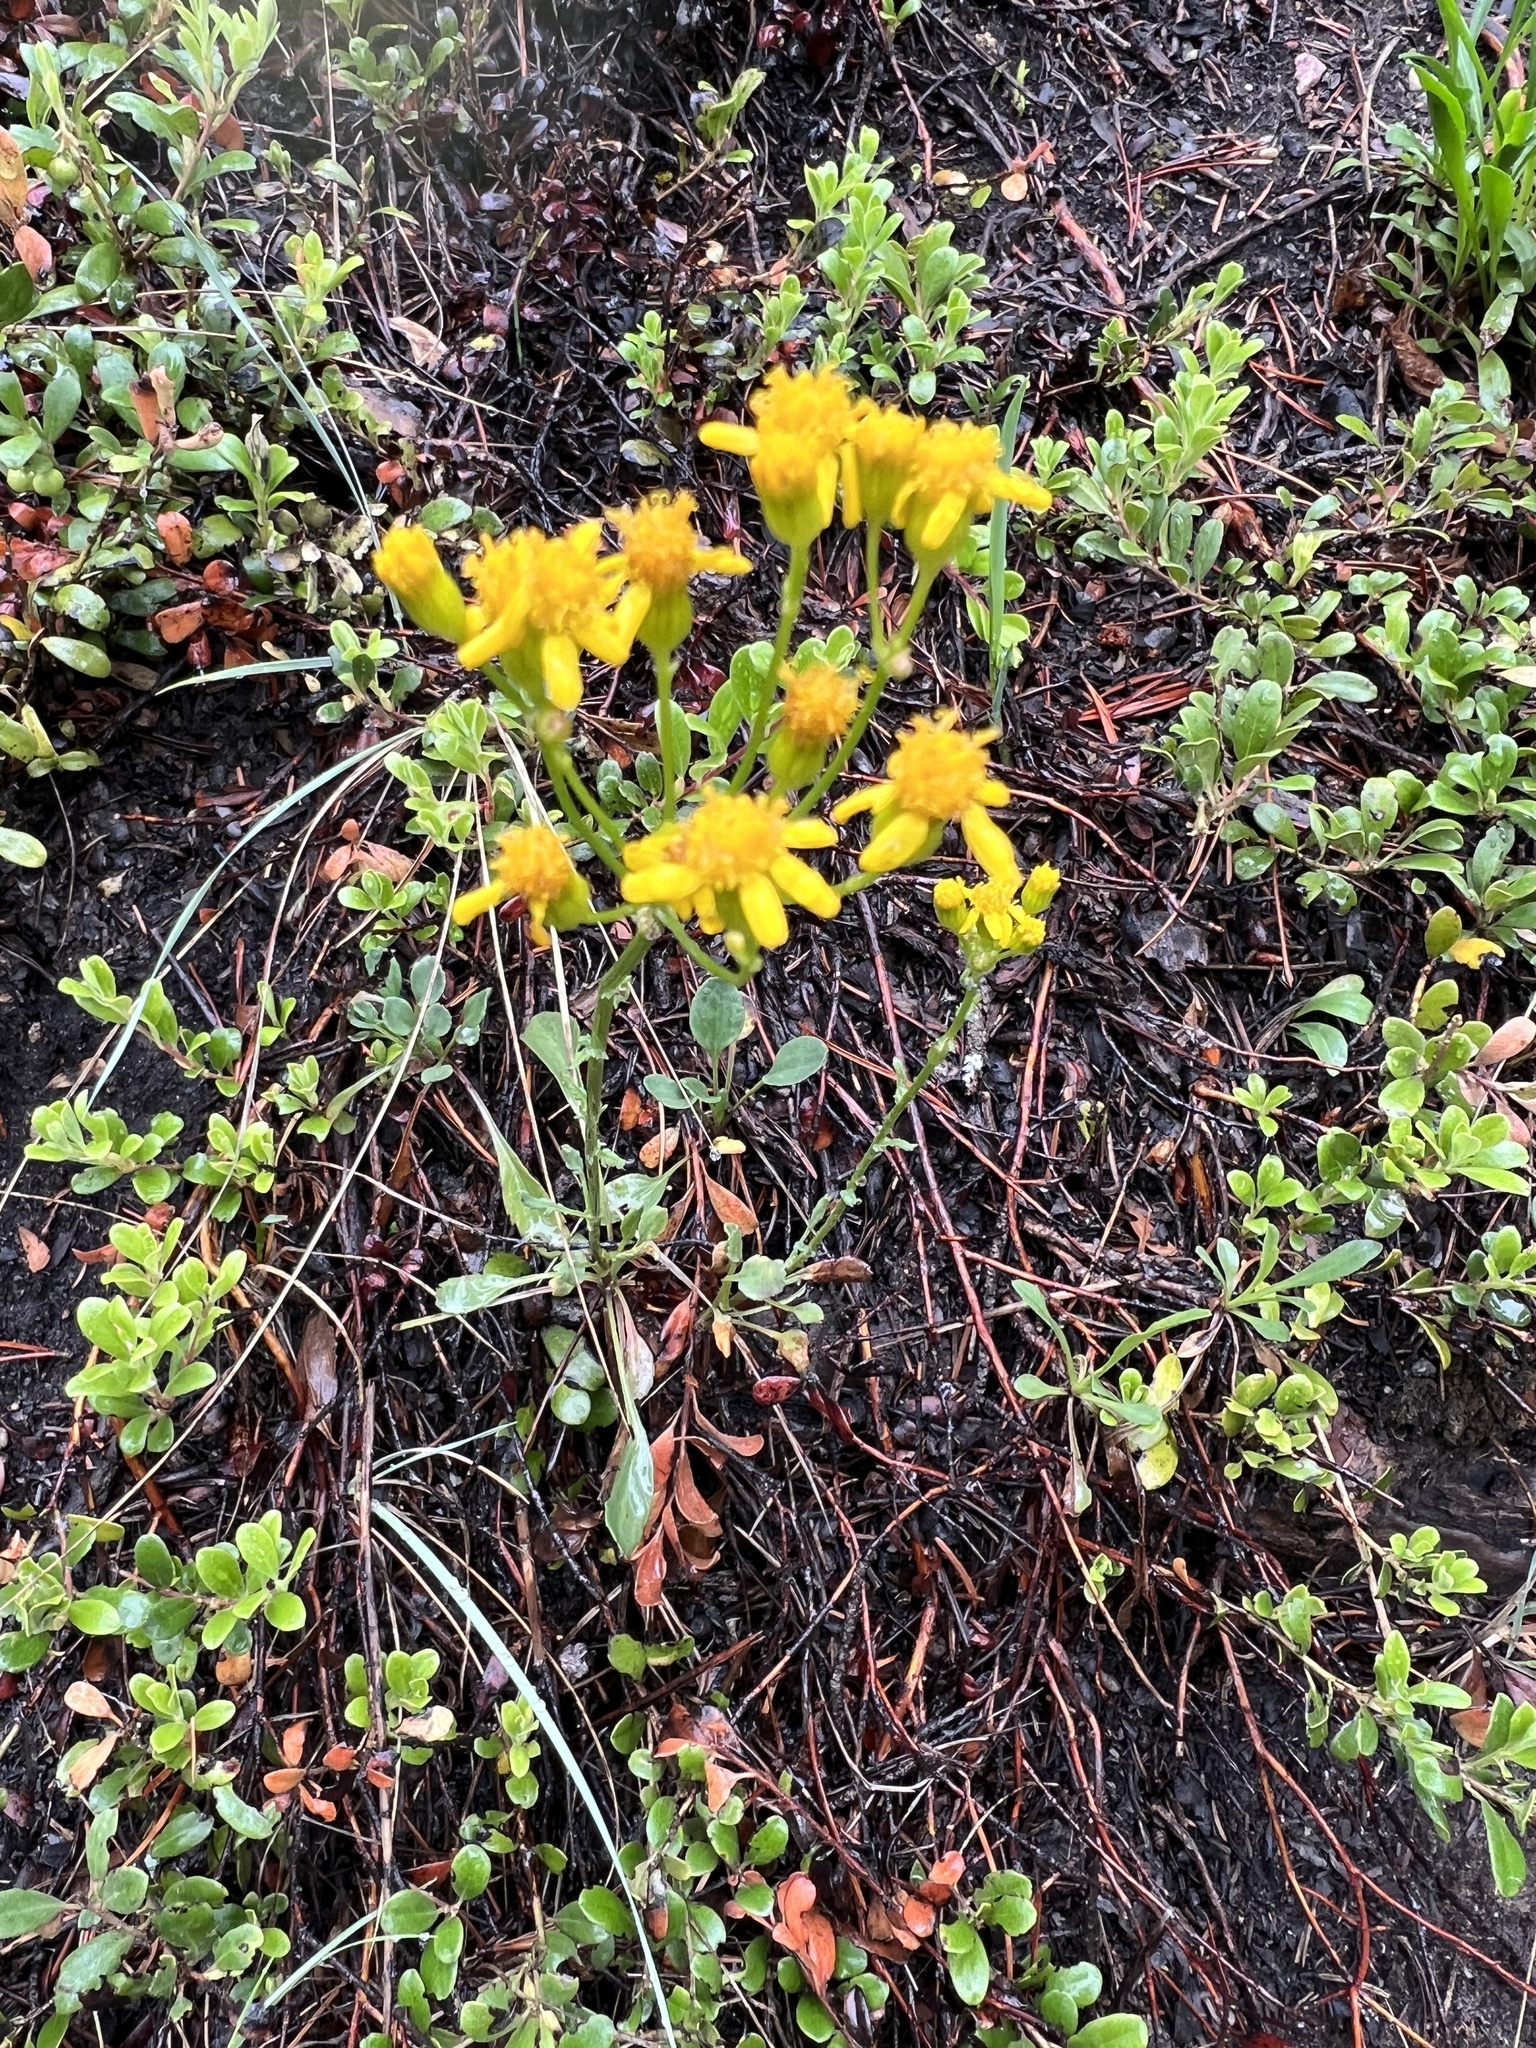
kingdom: Plantae
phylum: Tracheophyta
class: Magnoliopsida
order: Asterales
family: Asteraceae
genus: Packera
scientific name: Packera streptanthifolia
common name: Rocky mountain butterweed
